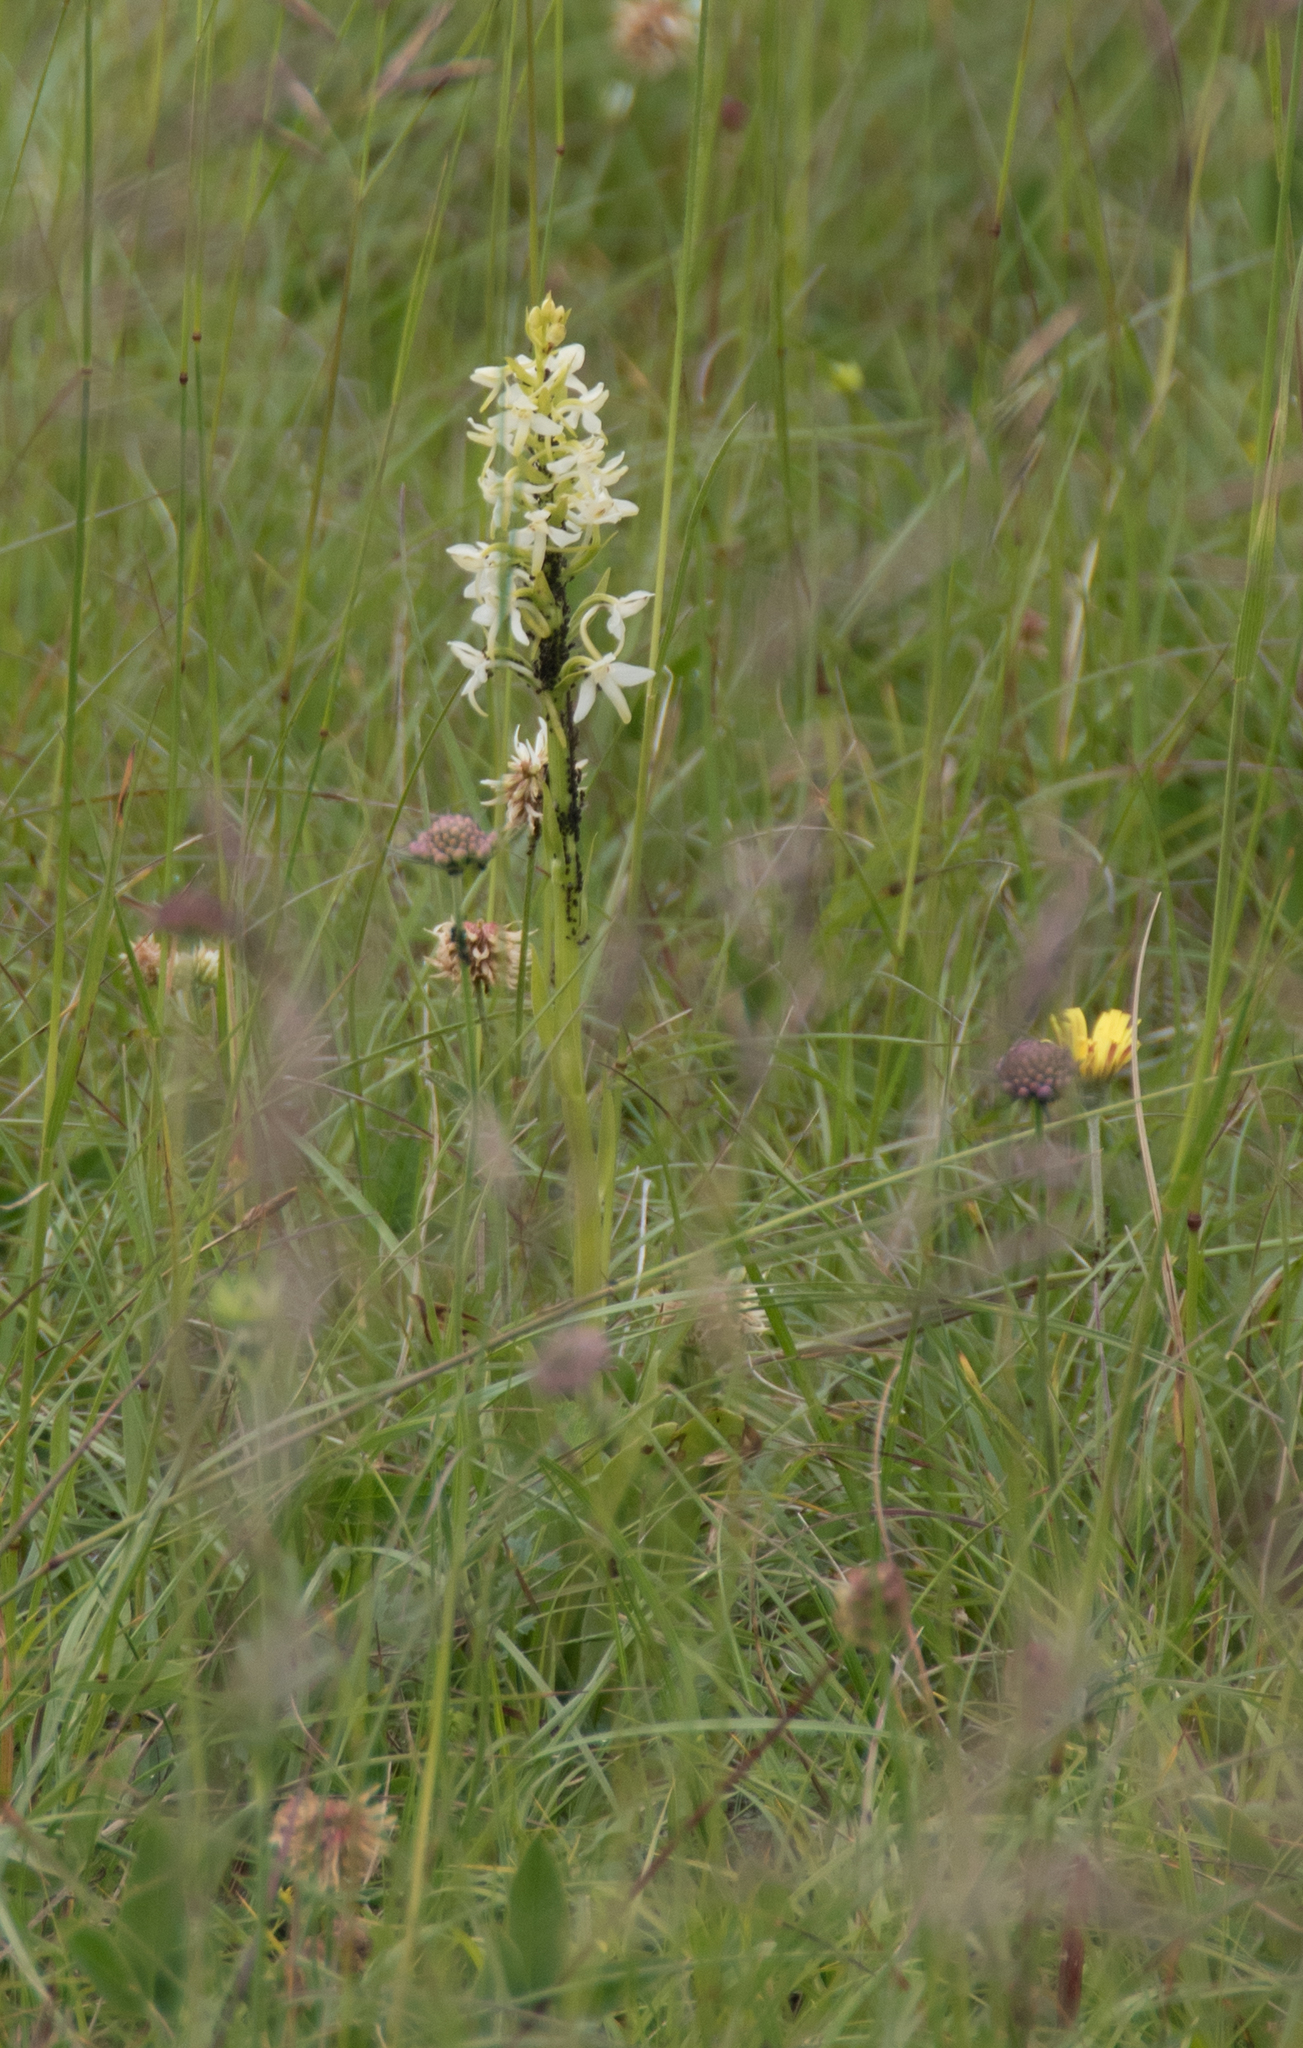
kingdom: Plantae
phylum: Tracheophyta
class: Liliopsida
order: Asparagales
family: Orchidaceae
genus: Platanthera
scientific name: Platanthera bifolia
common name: Lesser butterfly-orchid
